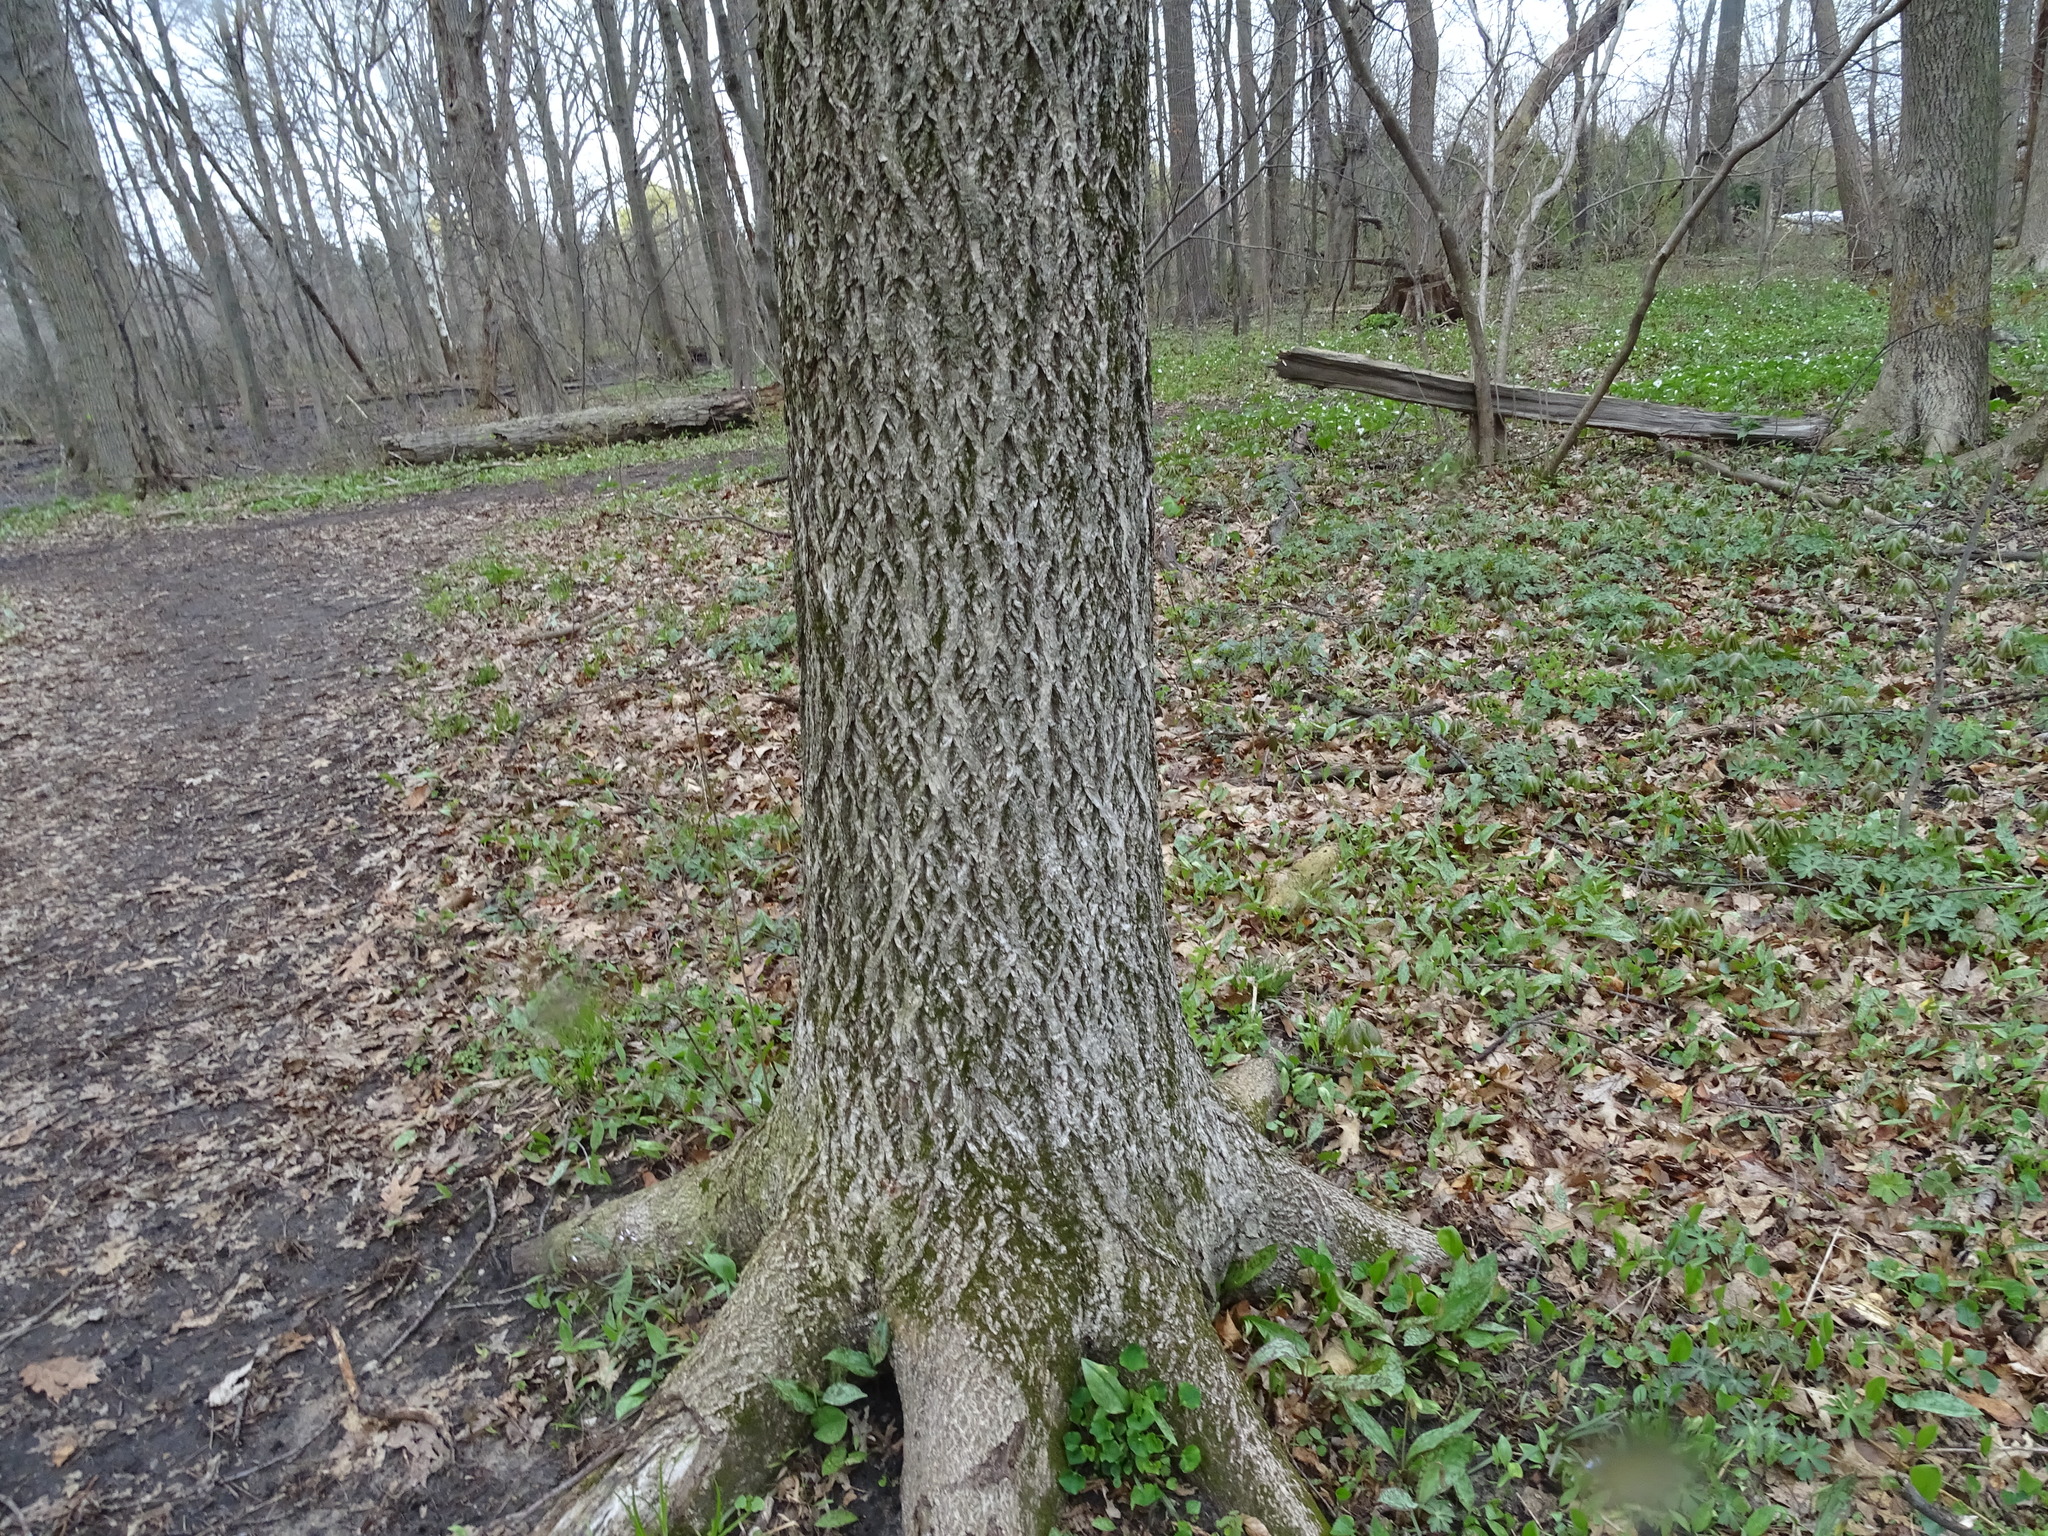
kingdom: Plantae
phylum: Tracheophyta
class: Magnoliopsida
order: Fagales
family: Juglandaceae
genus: Carya
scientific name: Carya cordiformis
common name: Bitternut hickory
